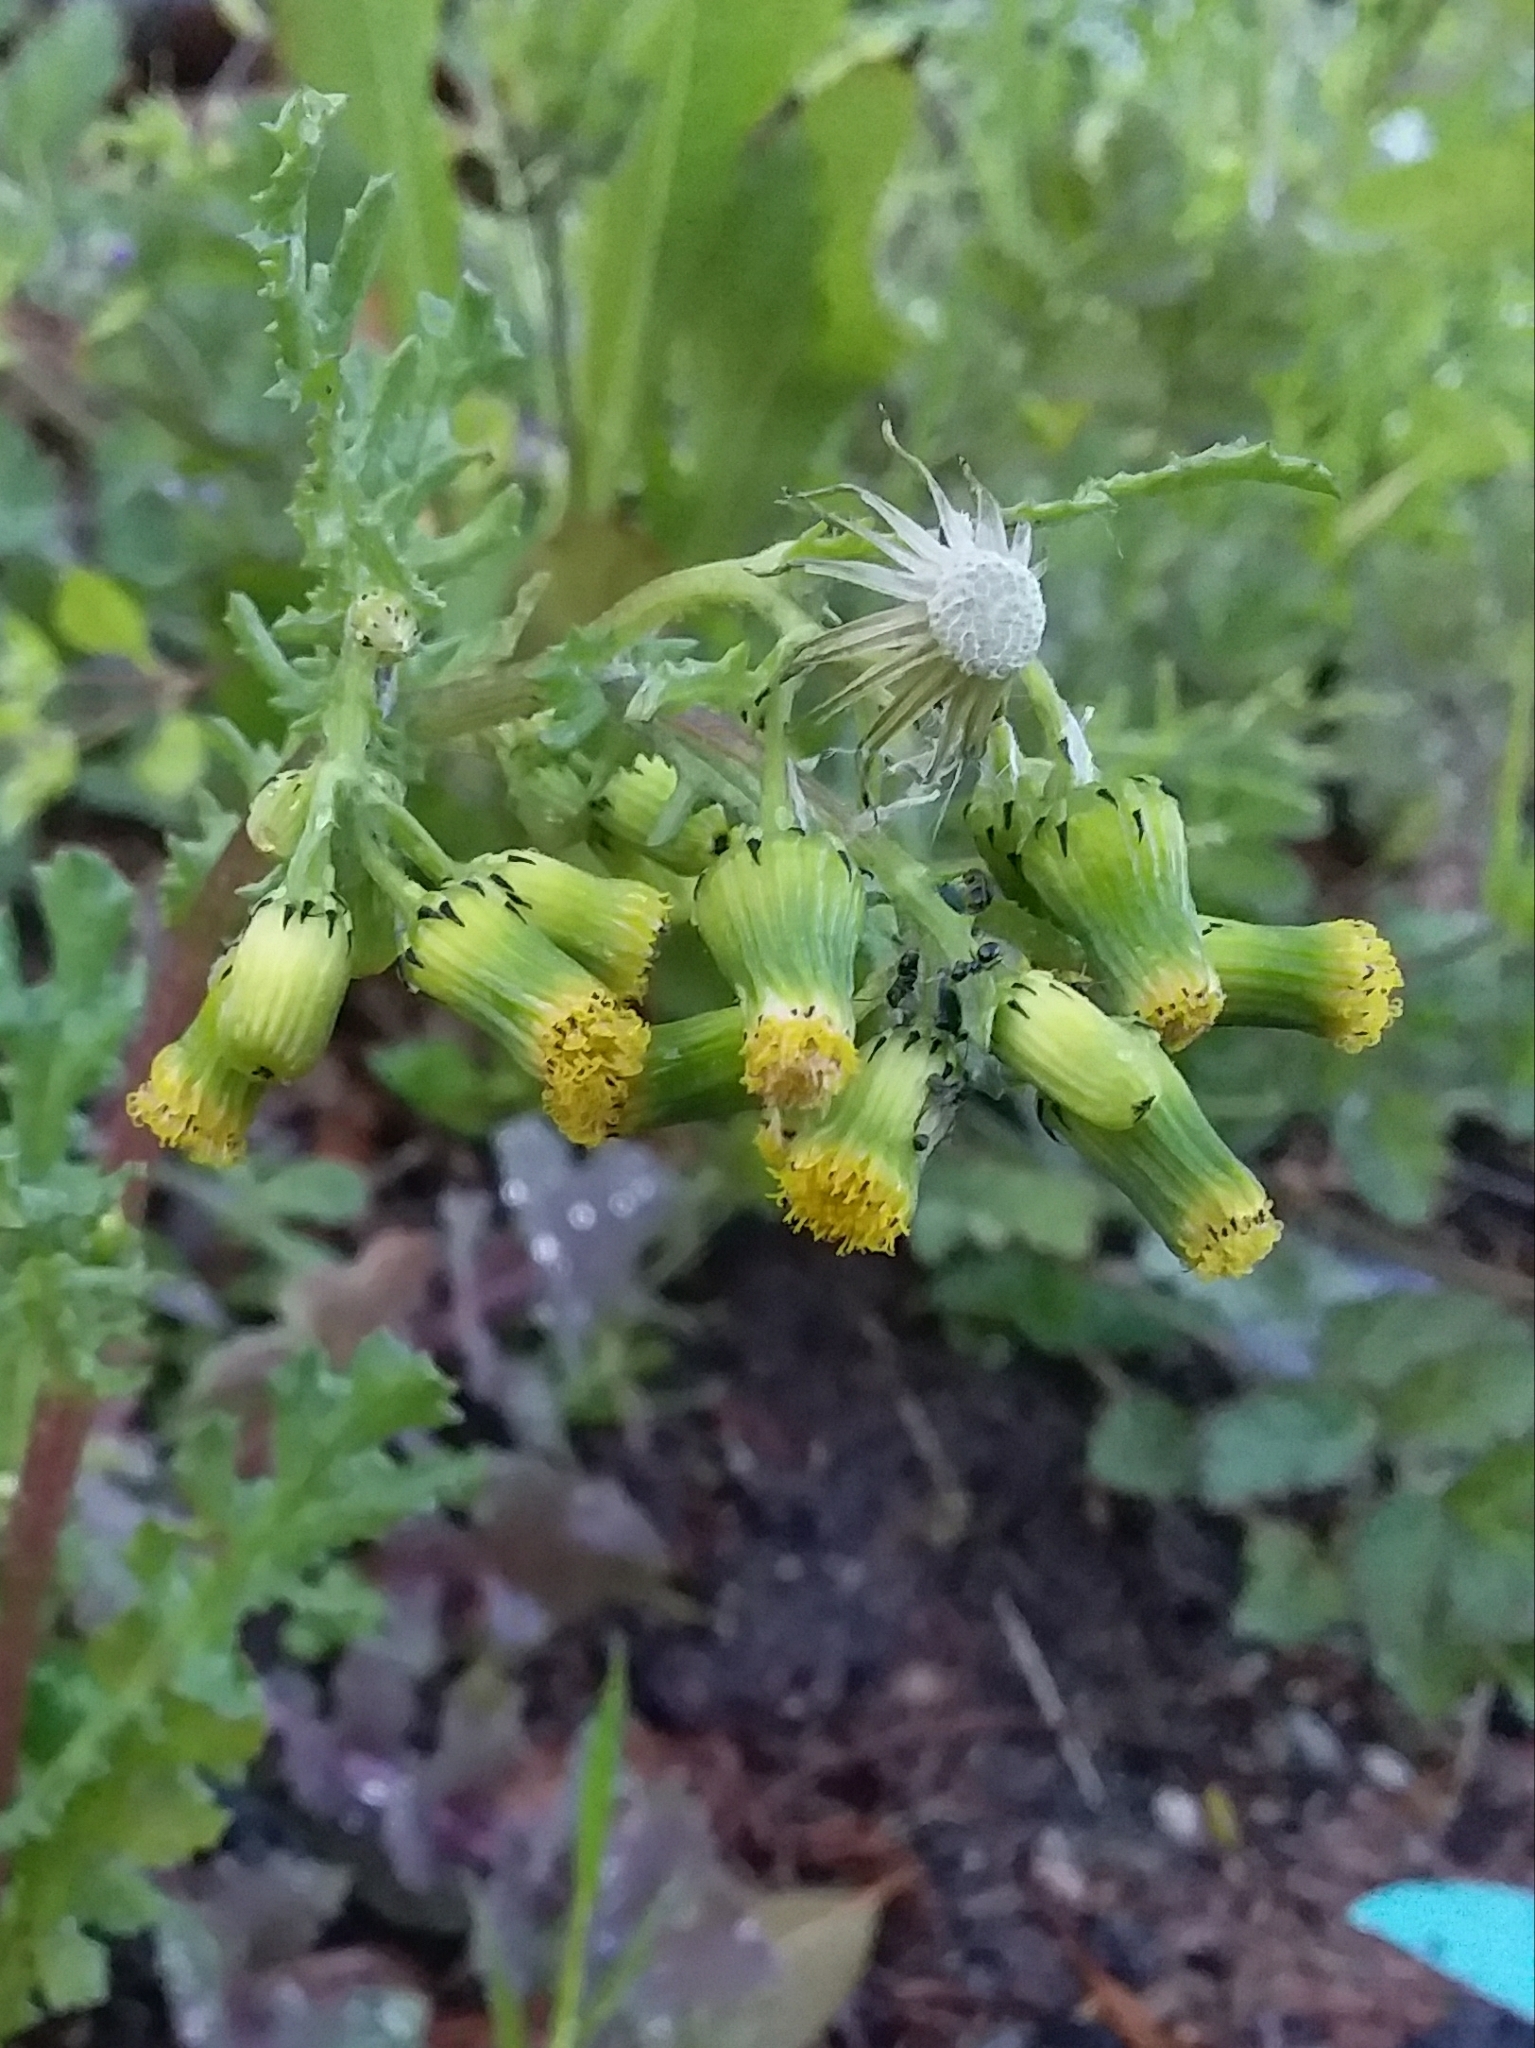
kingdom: Plantae
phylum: Tracheophyta
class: Magnoliopsida
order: Asterales
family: Asteraceae
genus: Senecio
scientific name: Senecio vulgaris
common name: Old-man-in-the-spring
